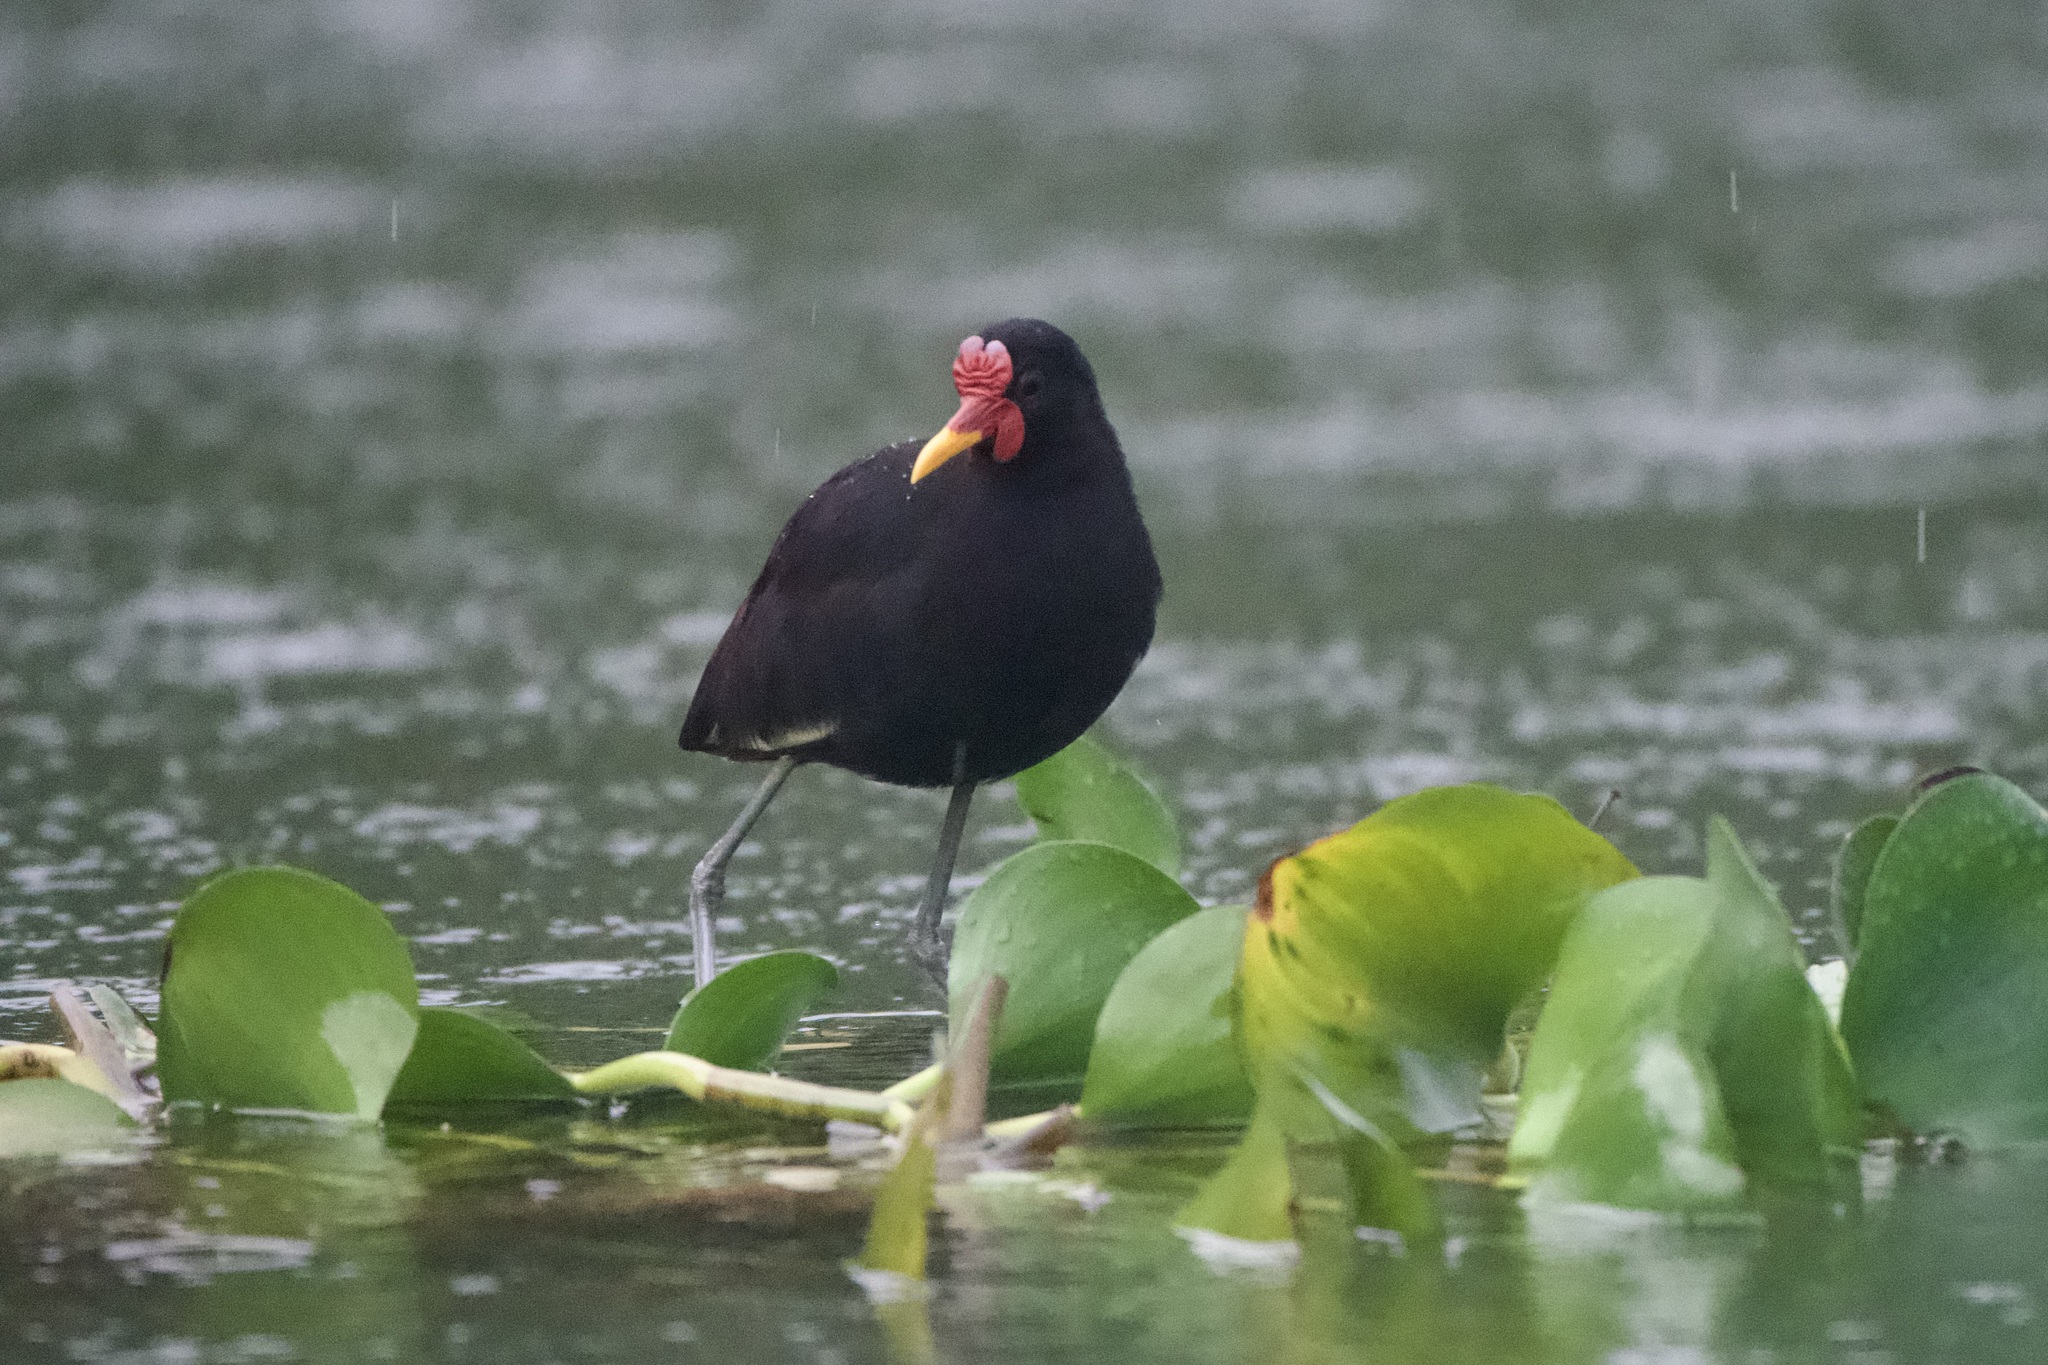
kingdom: Animalia
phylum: Chordata
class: Aves
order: Charadriiformes
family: Jacanidae
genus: Jacana
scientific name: Jacana jacana
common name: Wattled jacana
